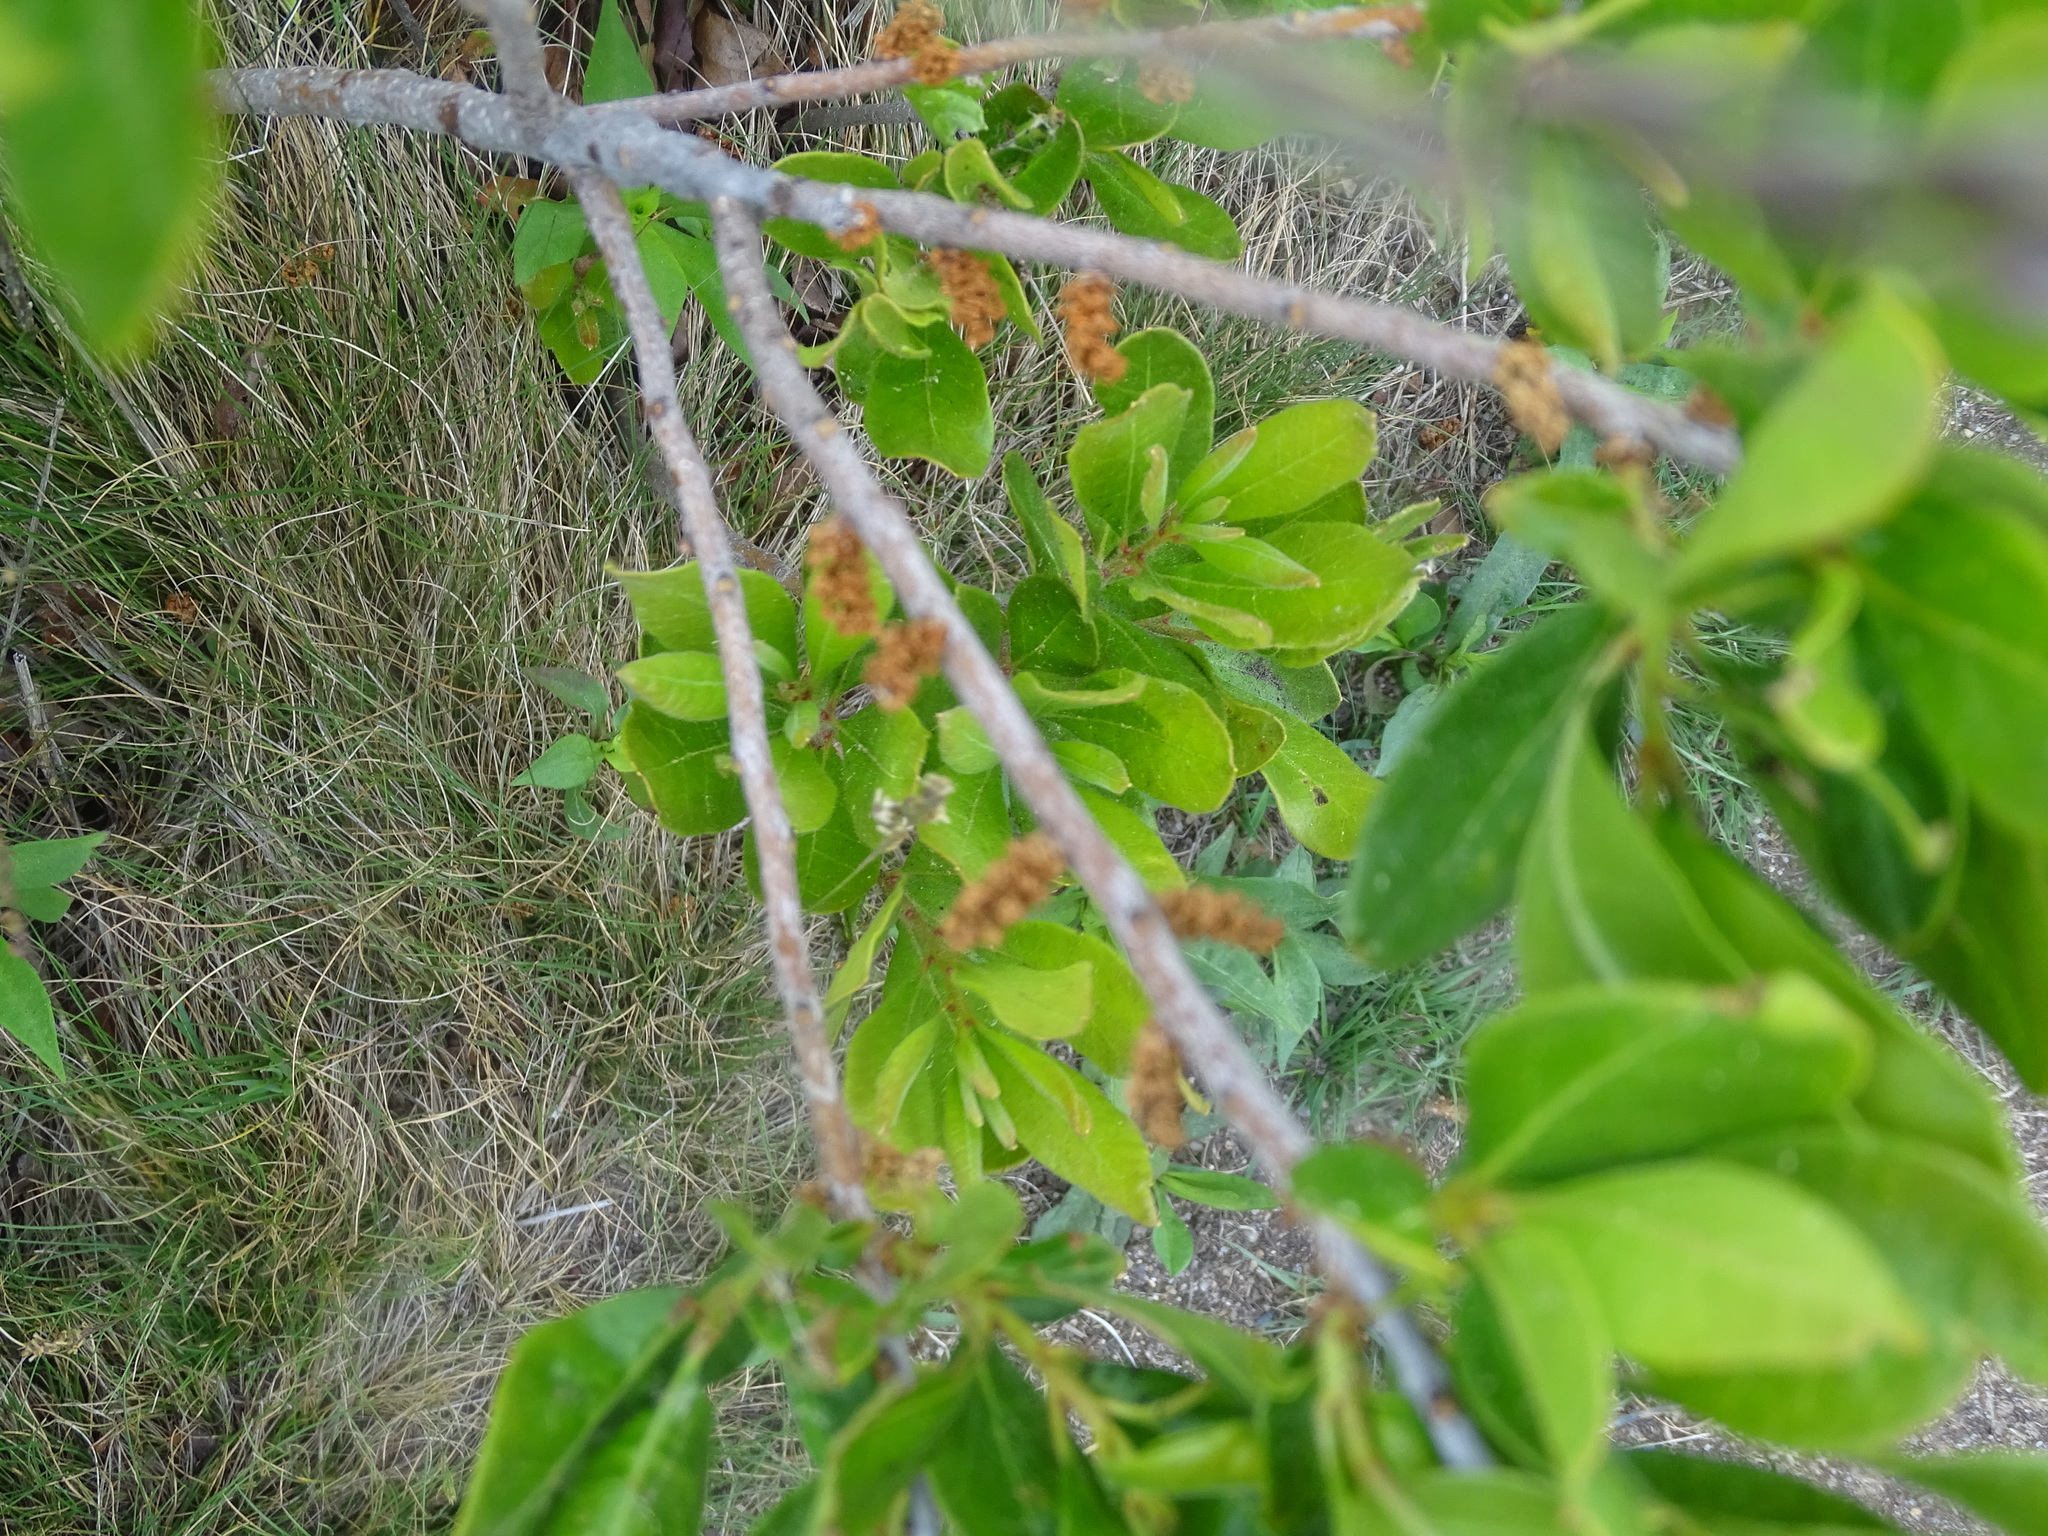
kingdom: Plantae
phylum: Tracheophyta
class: Magnoliopsida
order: Fagales
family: Myricaceae
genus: Morella
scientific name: Morella pensylvanica
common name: Northern bayberry
